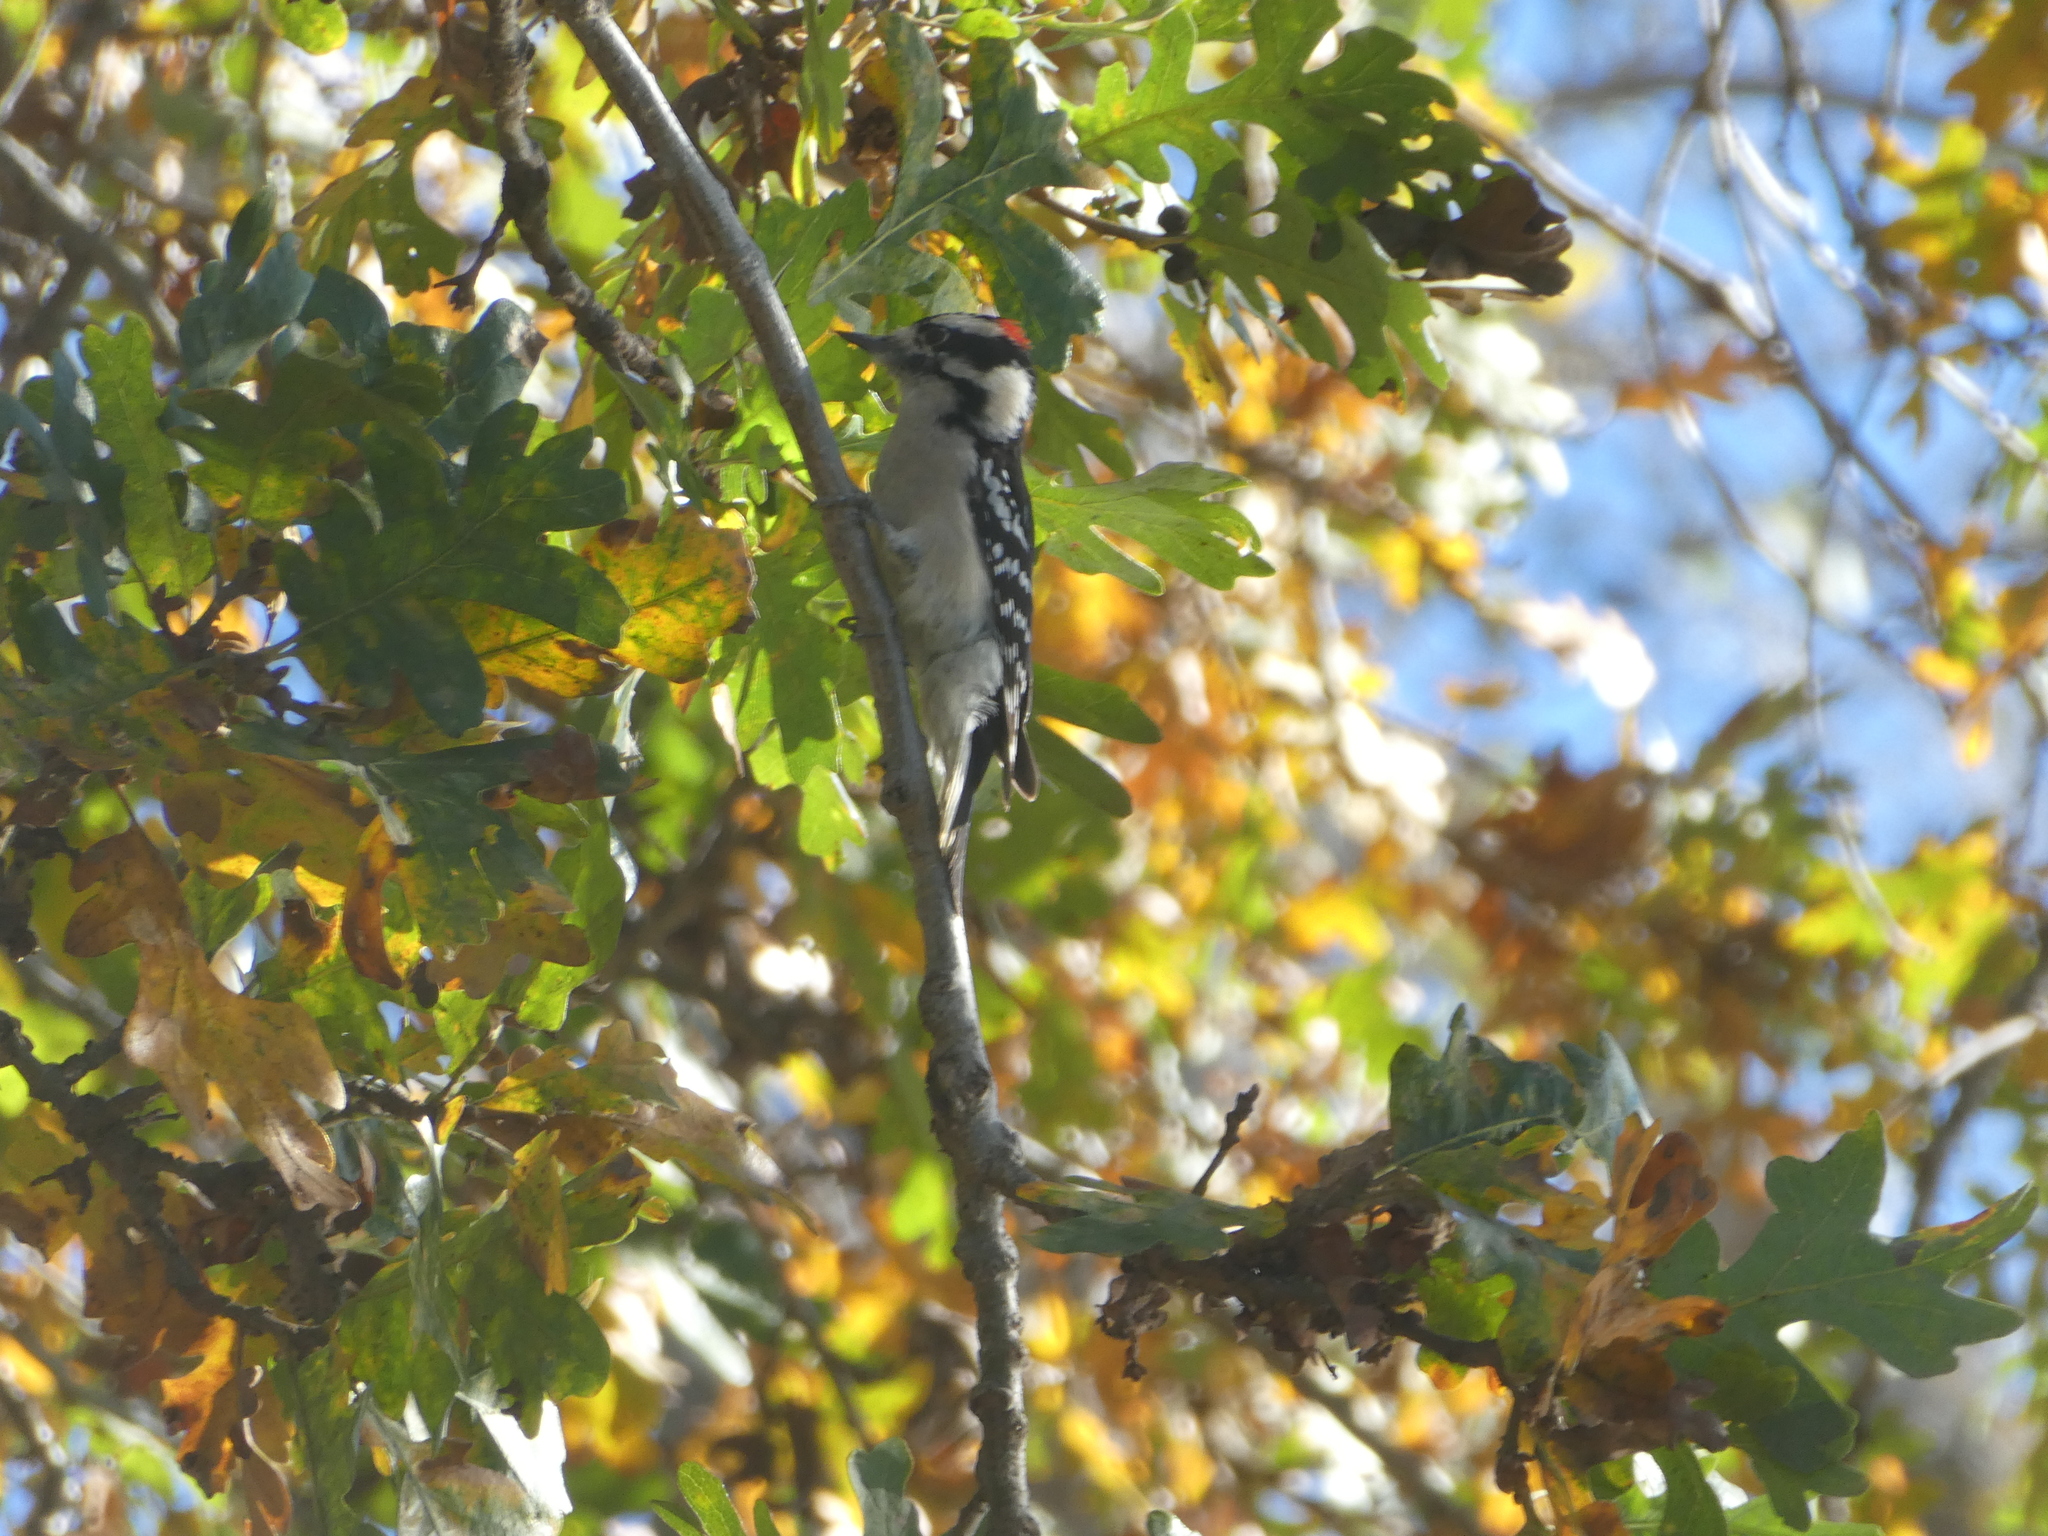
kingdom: Animalia
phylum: Chordata
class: Aves
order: Piciformes
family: Picidae
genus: Dryobates
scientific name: Dryobates pubescens
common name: Downy woodpecker
